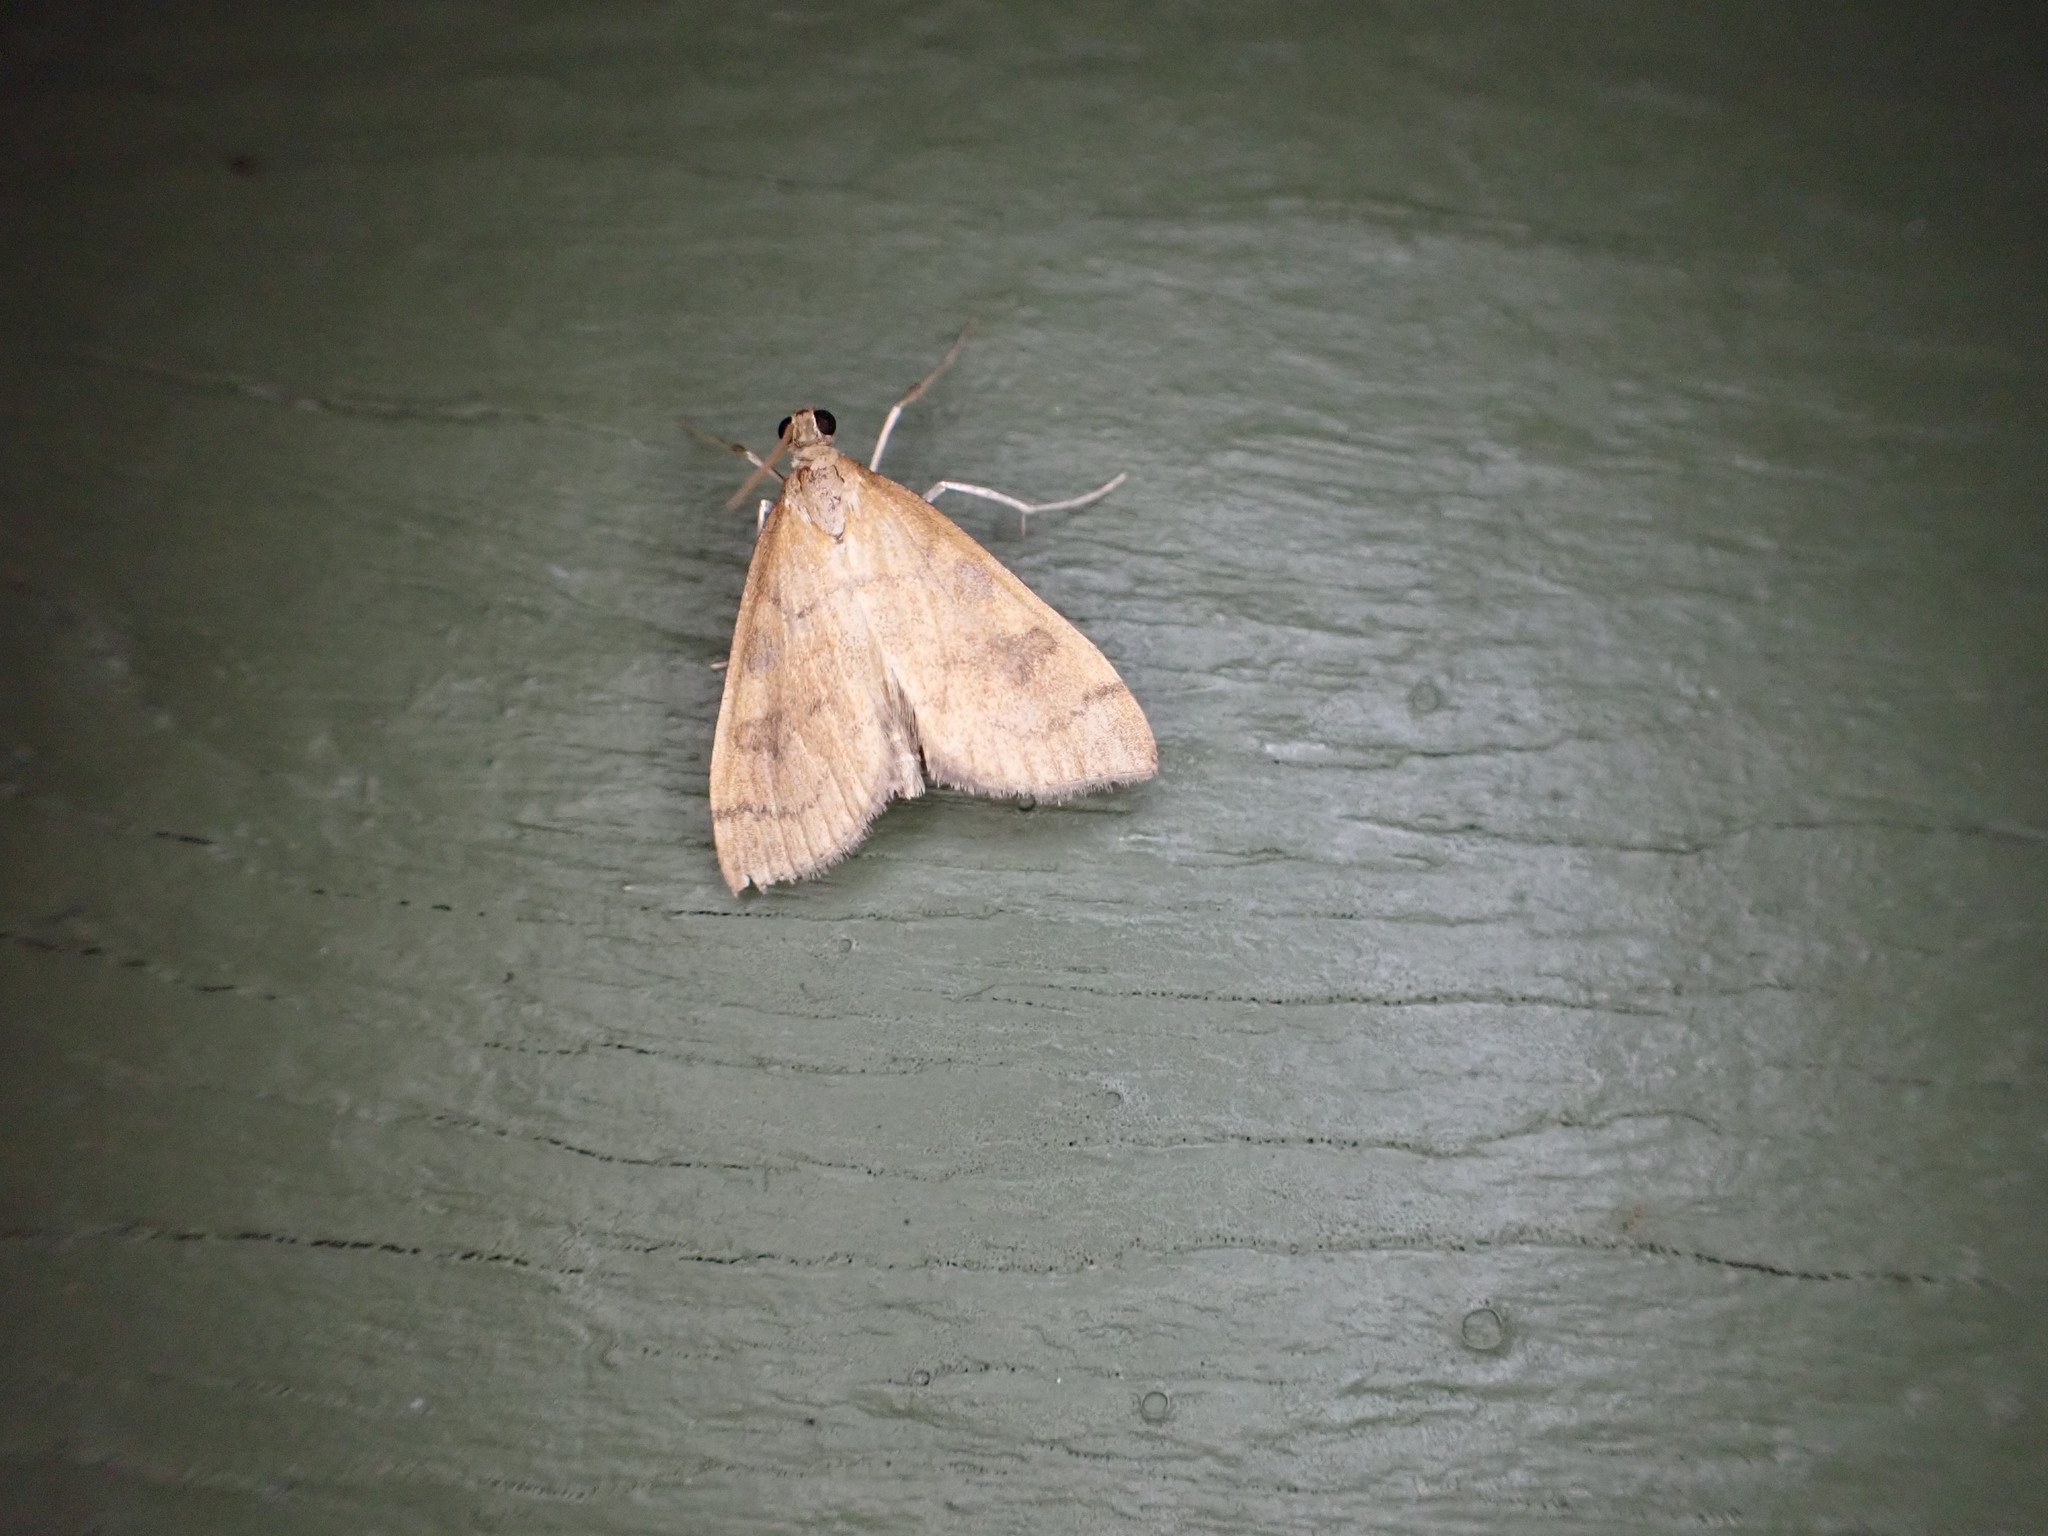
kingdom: Animalia
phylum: Arthropoda
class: Insecta
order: Lepidoptera
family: Crambidae
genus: Udea
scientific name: Udea Mnesictena flavidalis
